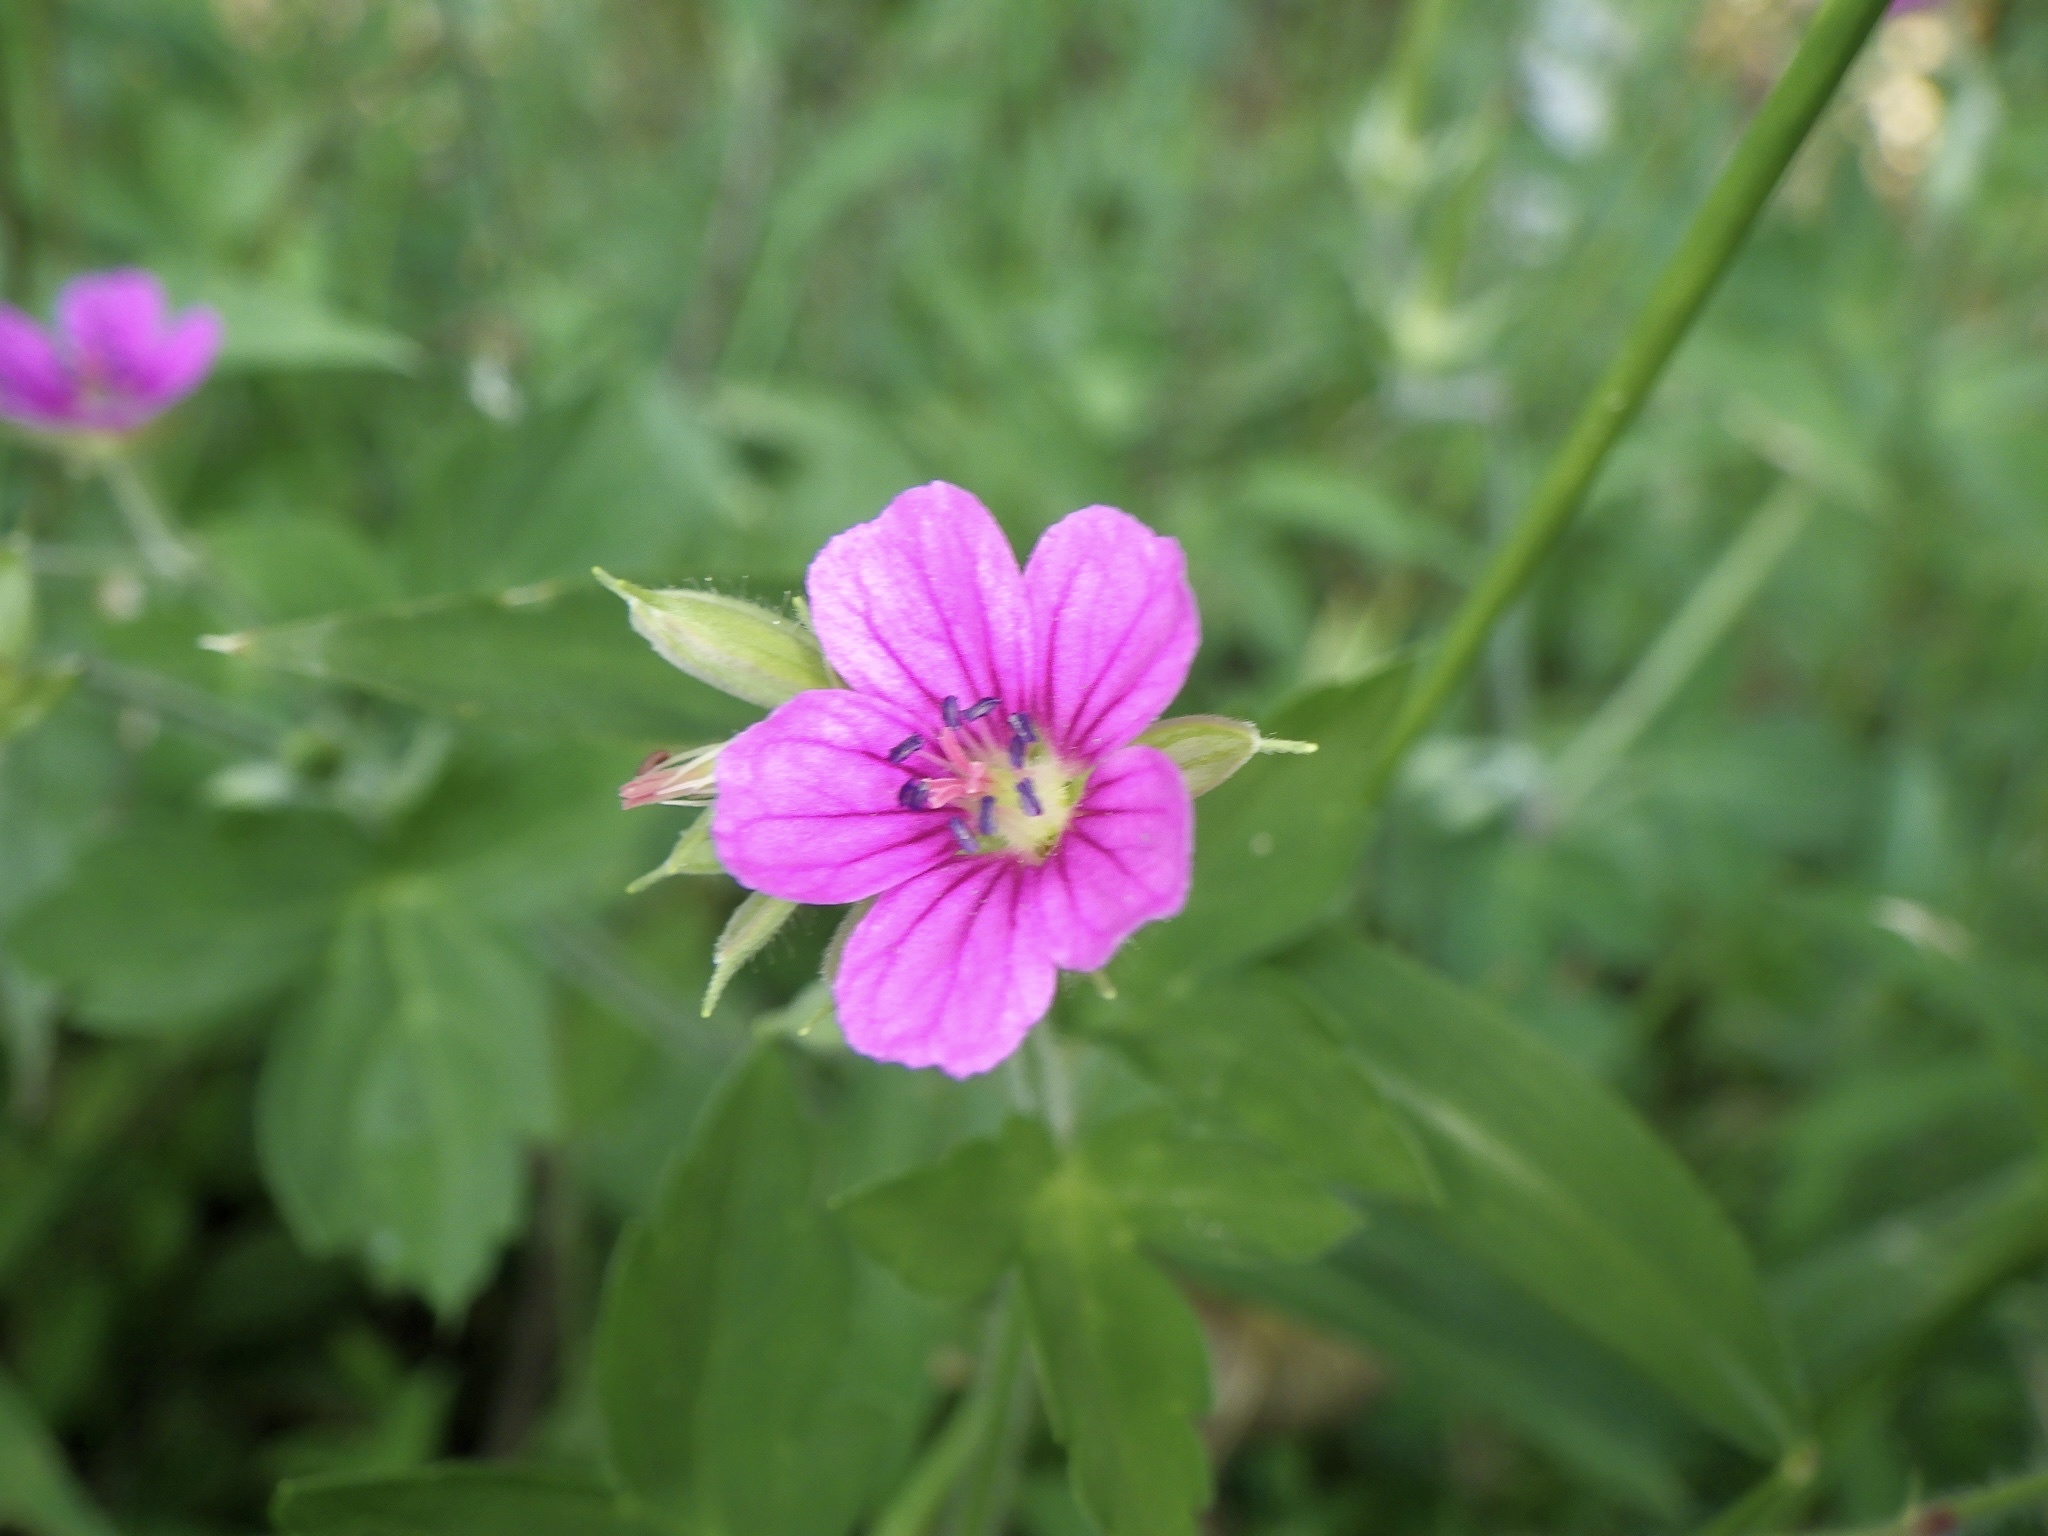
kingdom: Plantae
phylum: Tracheophyta
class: Magnoliopsida
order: Geraniales
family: Geraniaceae
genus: Geranium
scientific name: Geranium thunbergii
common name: Dewdrop crane's-bill
